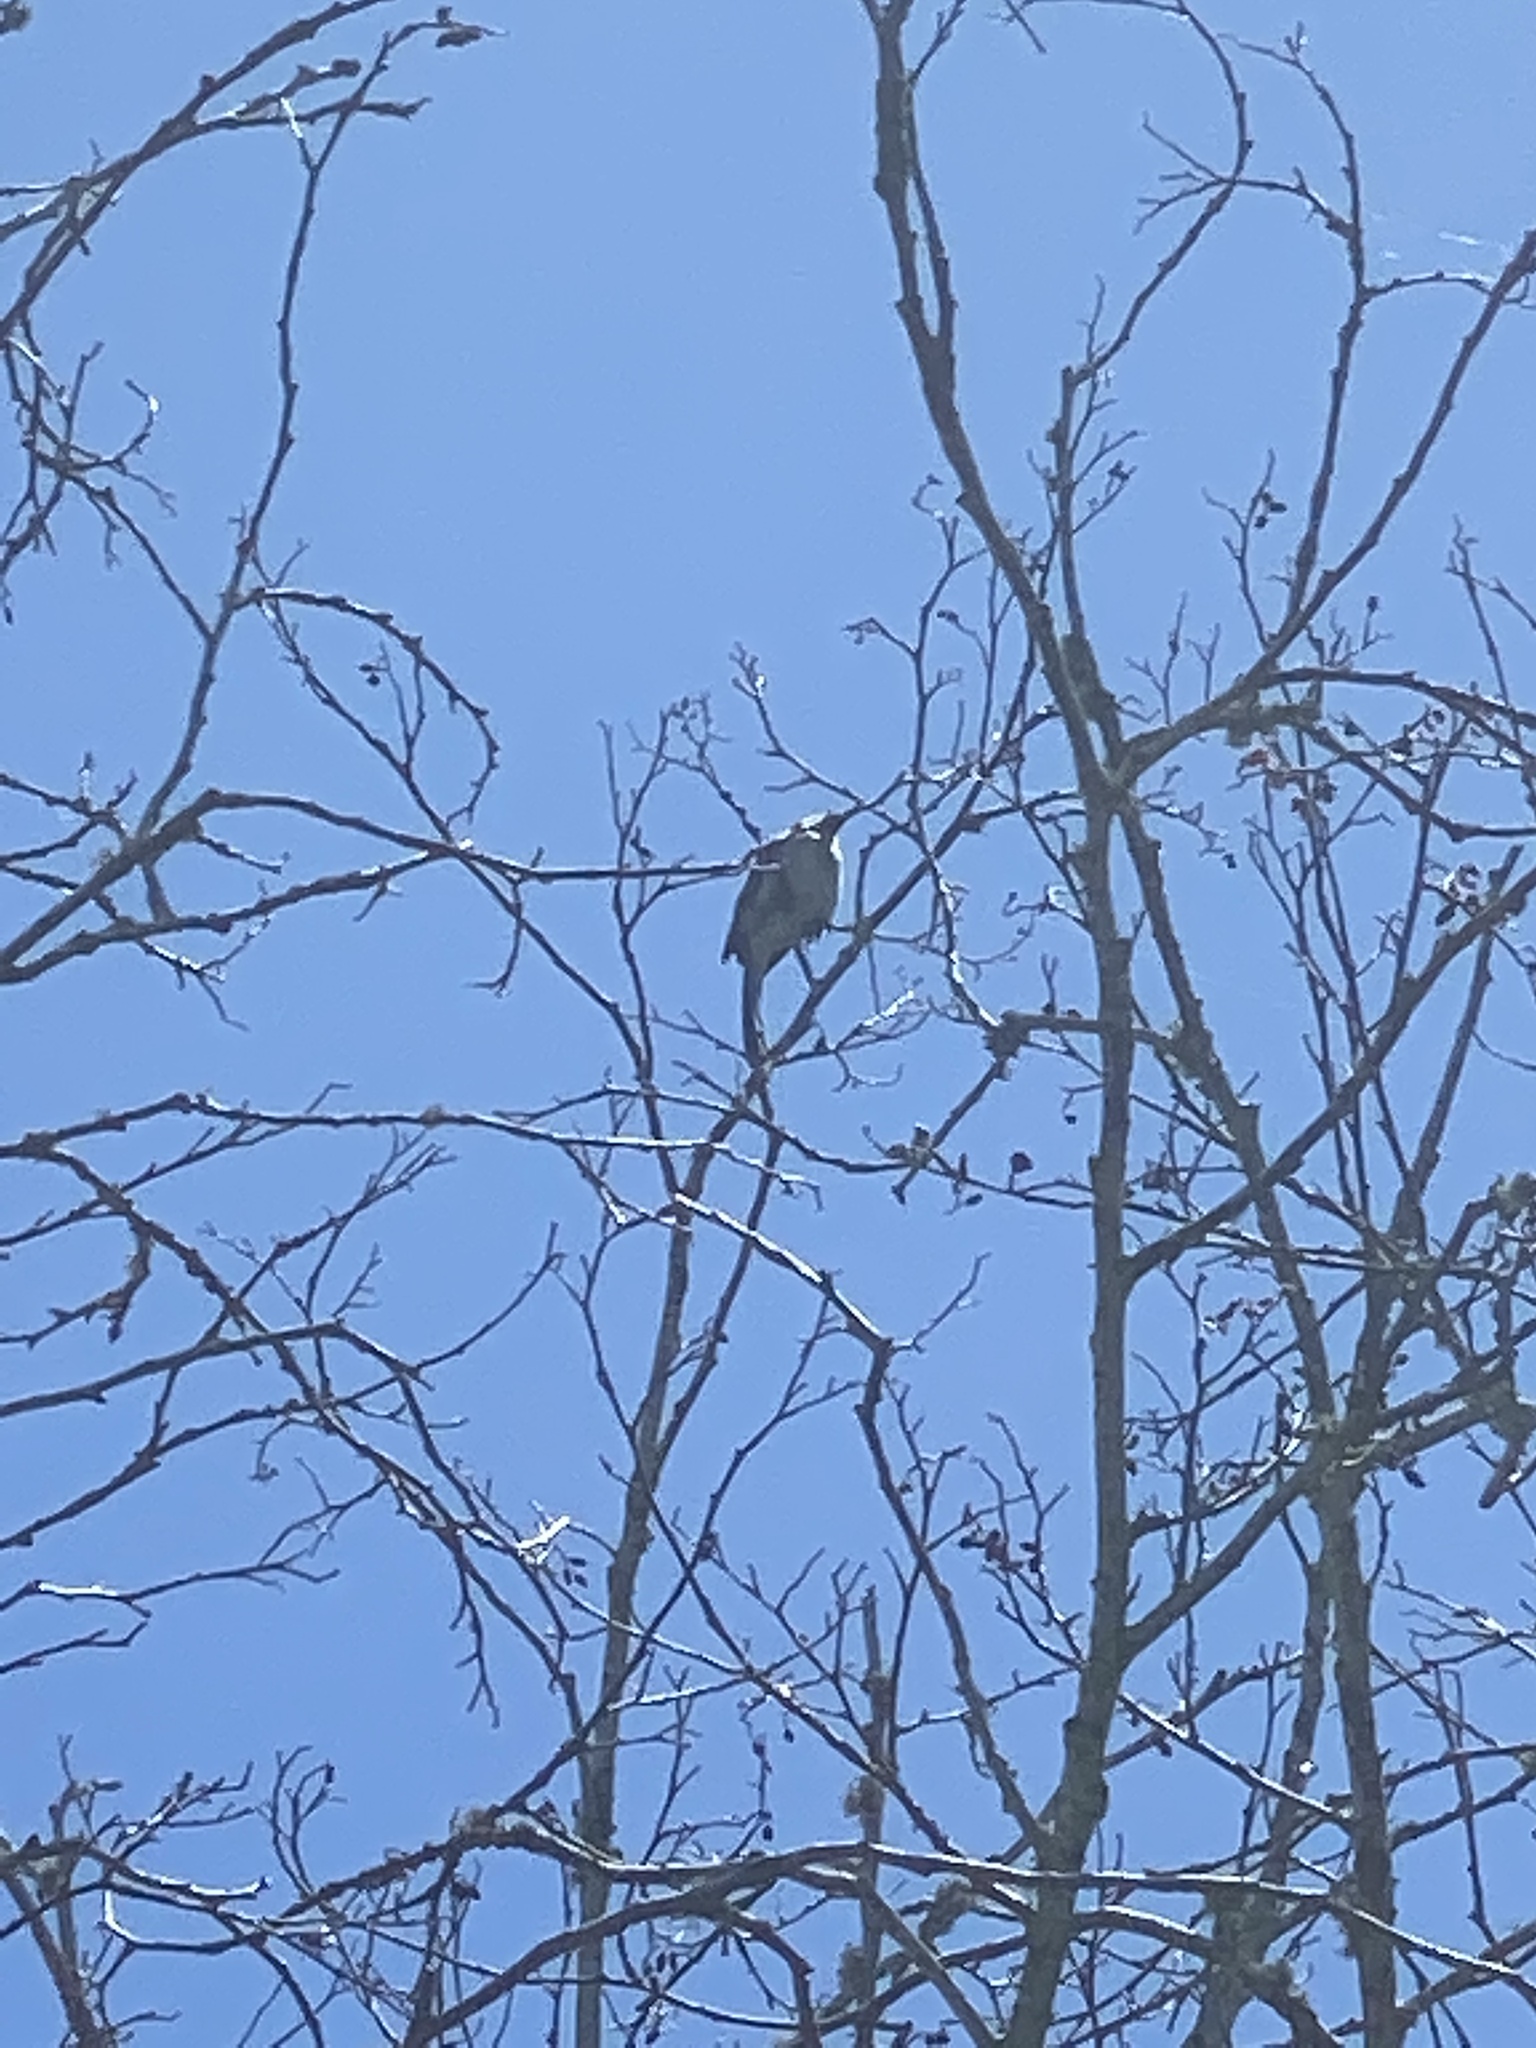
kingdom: Animalia
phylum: Chordata
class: Aves
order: Passeriformes
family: Corvidae
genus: Aphelocoma
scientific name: Aphelocoma californica
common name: California scrub-jay
